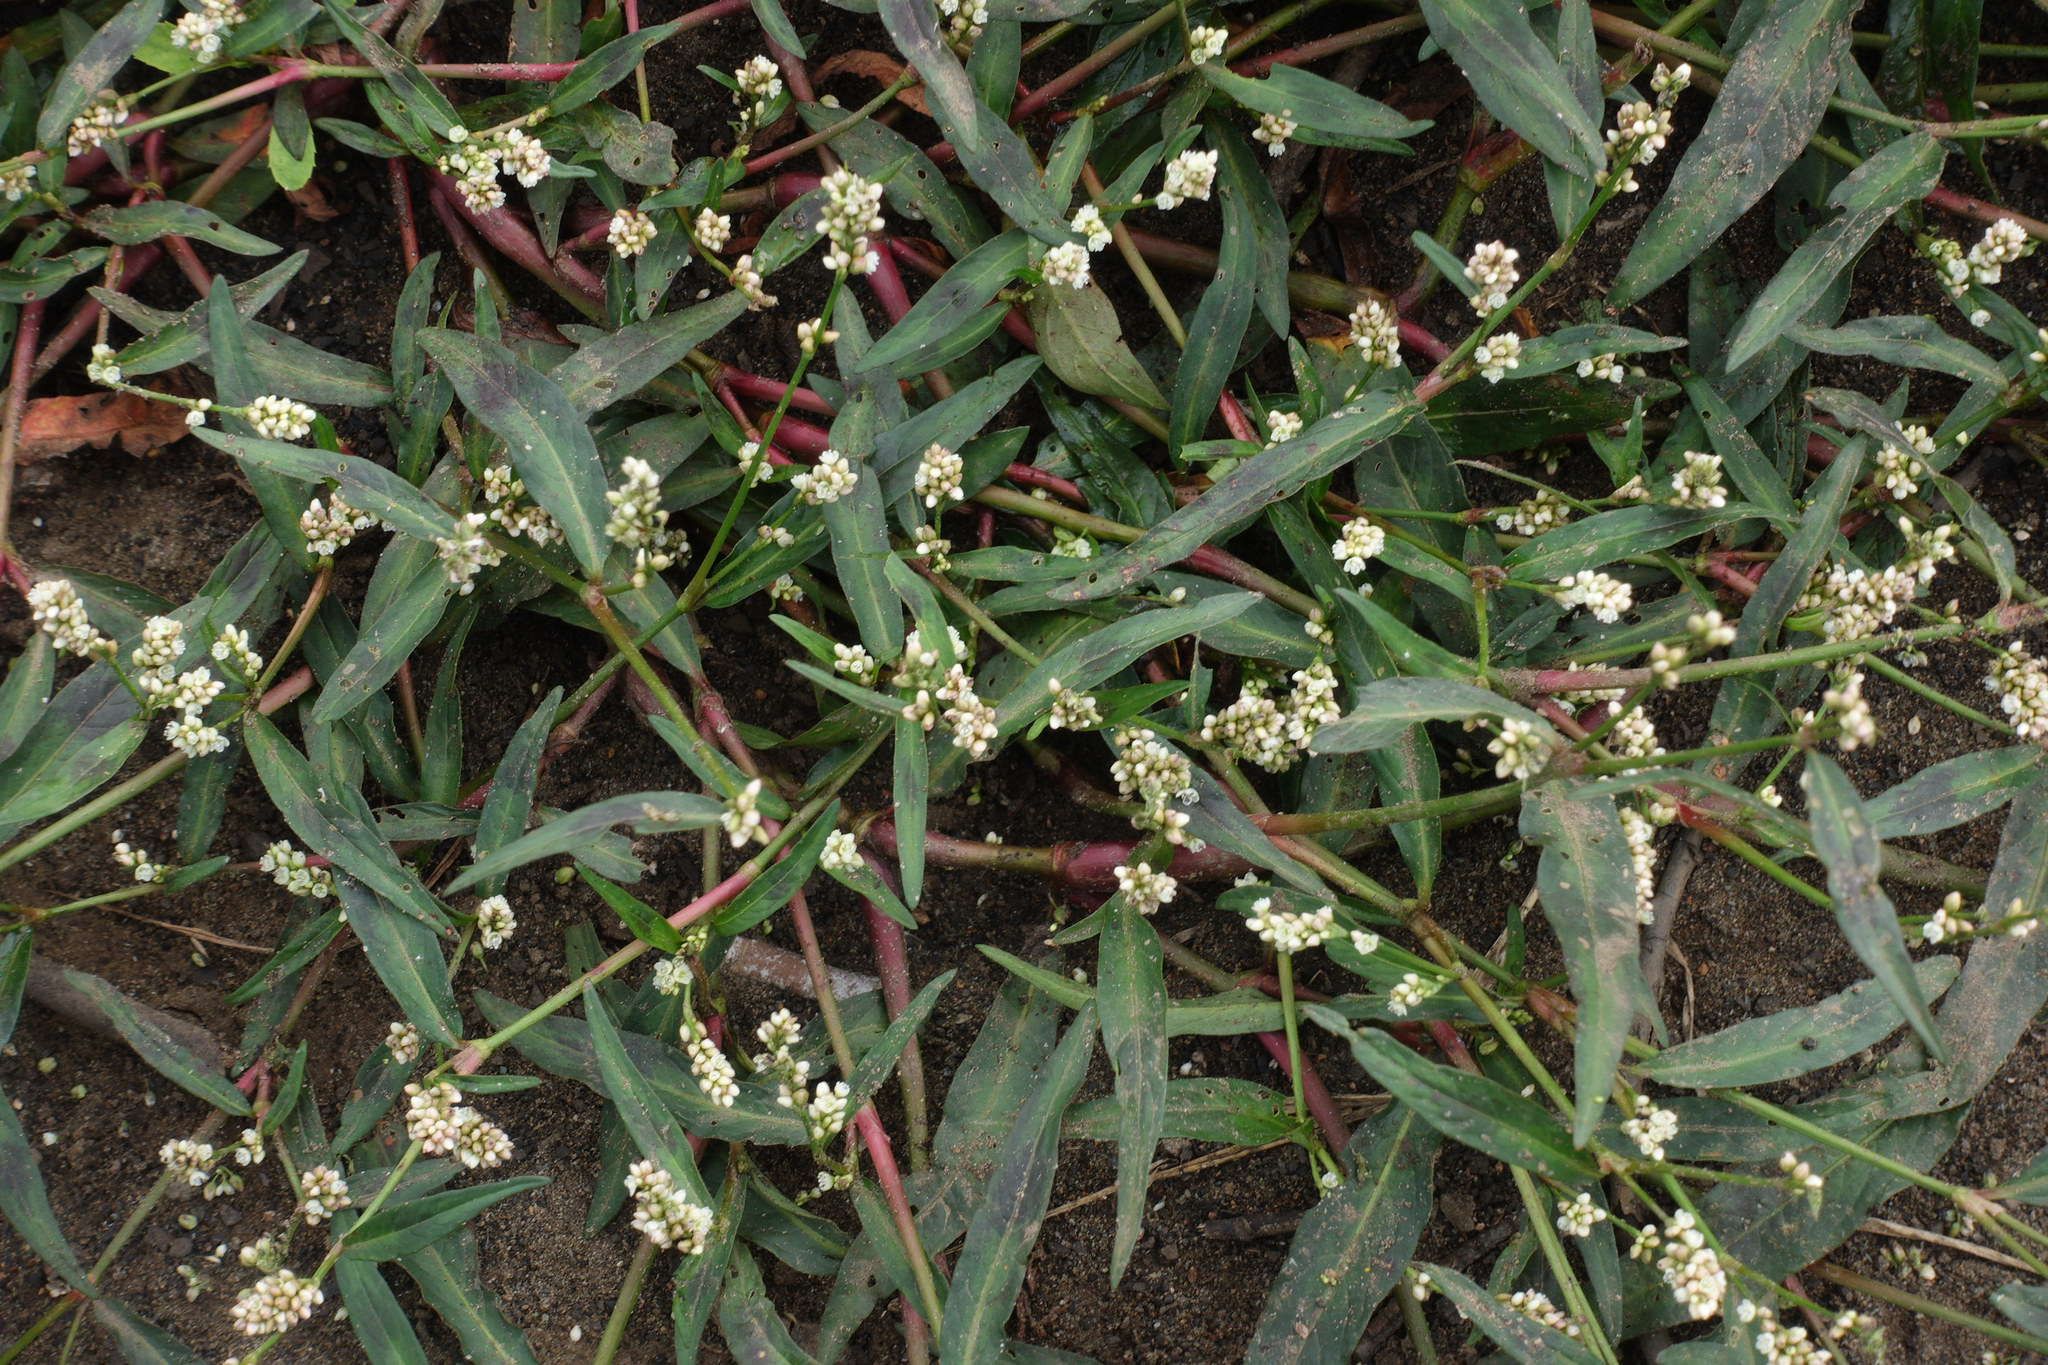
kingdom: Plantae
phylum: Tracheophyta
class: Magnoliopsida
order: Caryophyllales
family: Polygonaceae
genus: Persicaria
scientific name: Persicaria maculosa
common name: Redshank
